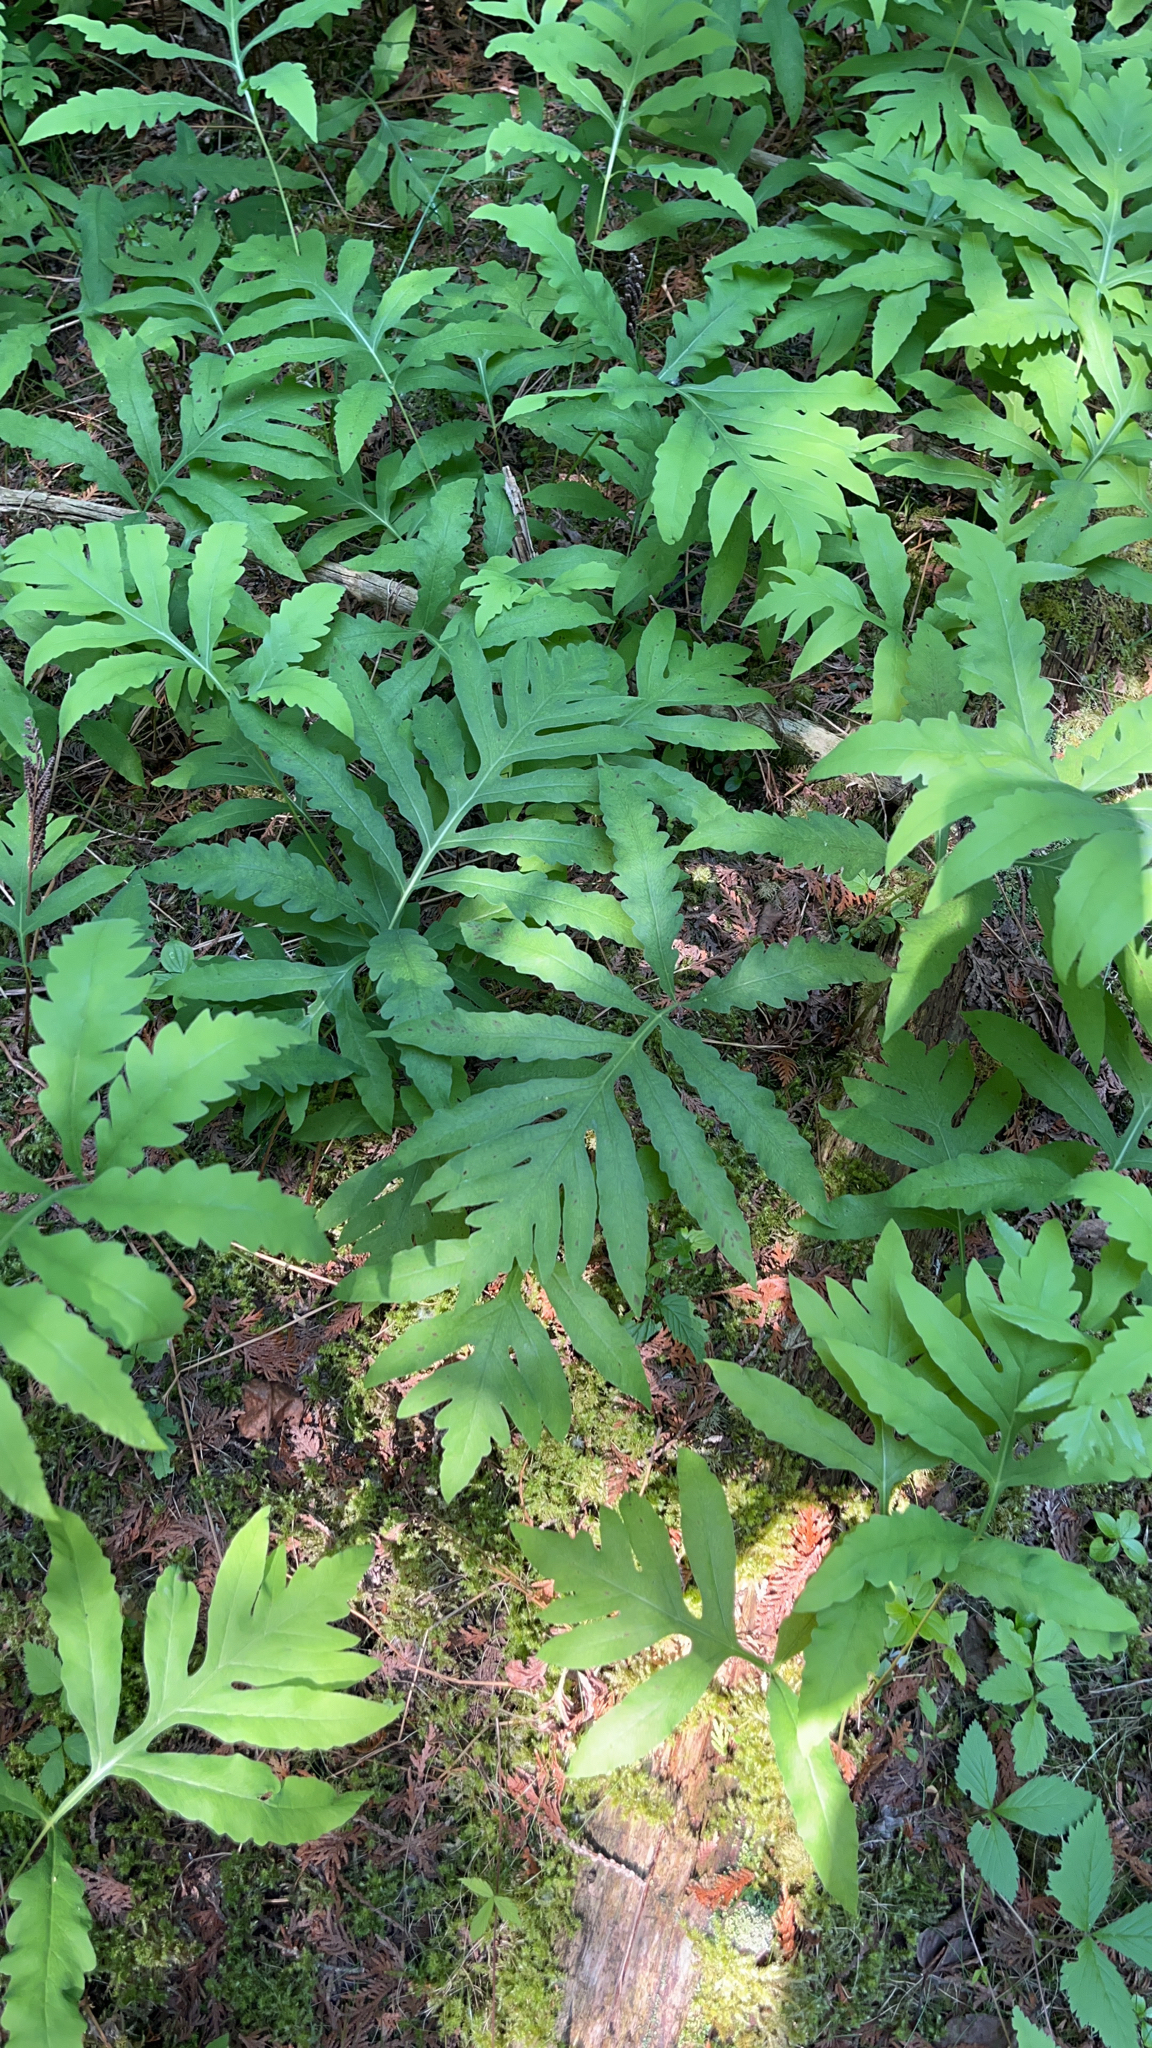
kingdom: Plantae
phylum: Tracheophyta
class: Polypodiopsida
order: Polypodiales
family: Onocleaceae
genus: Onoclea
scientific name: Onoclea sensibilis
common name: Sensitive fern
